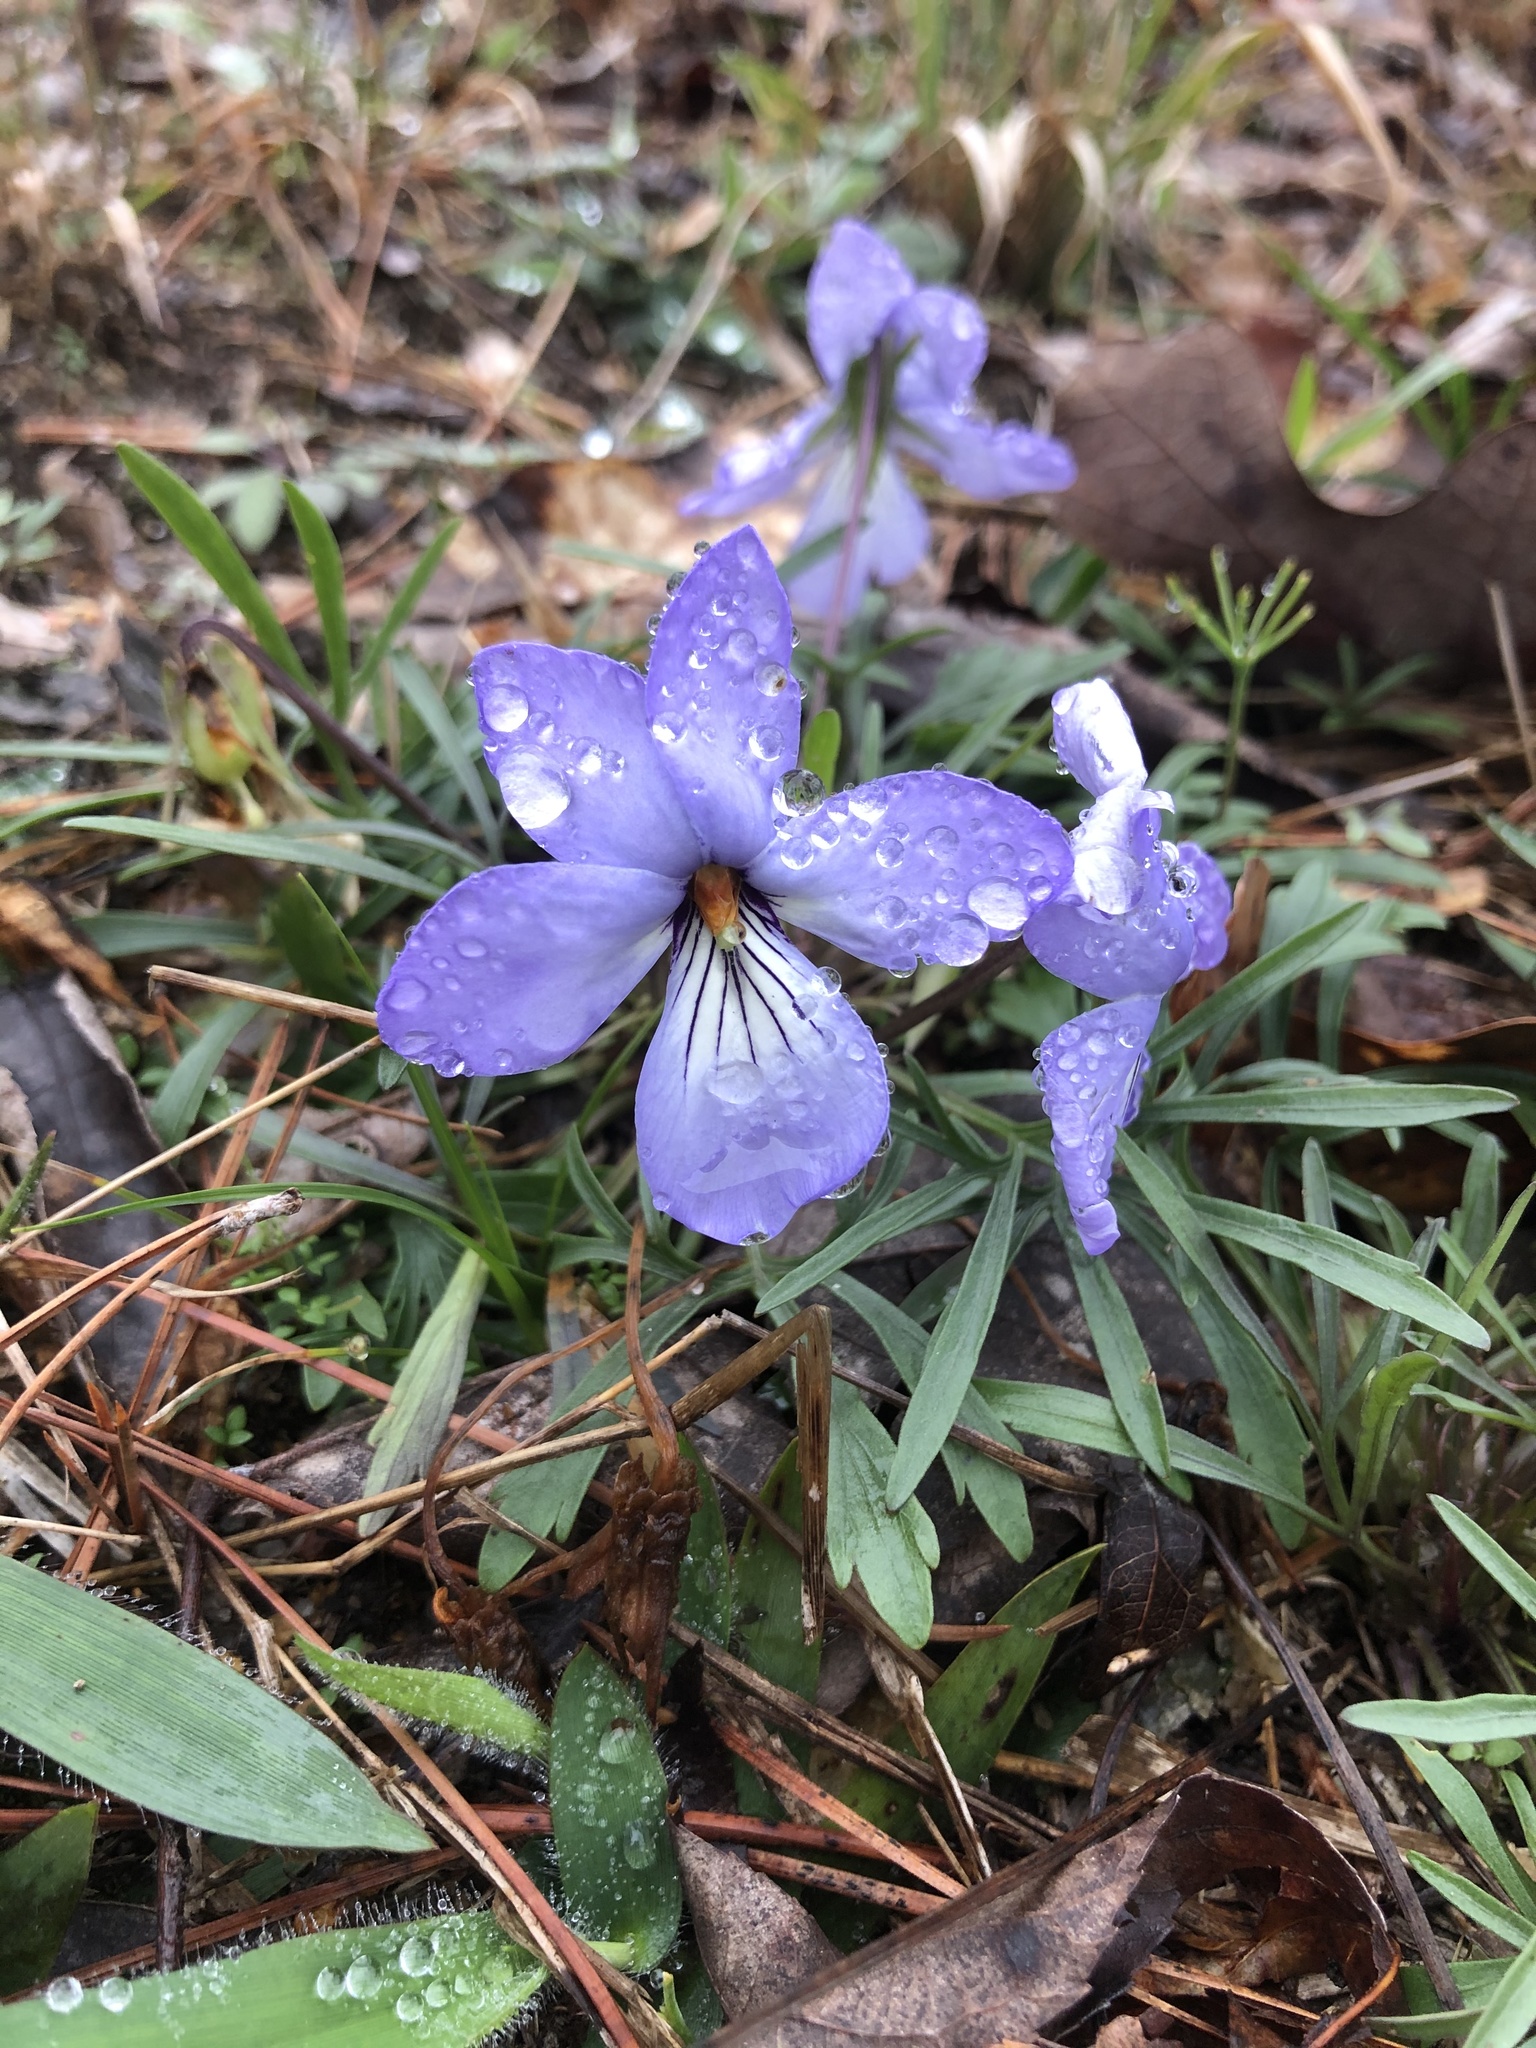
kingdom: Plantae
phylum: Tracheophyta
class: Magnoliopsida
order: Malpighiales
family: Violaceae
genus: Viola
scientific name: Viola pedata
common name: Pansy violet
